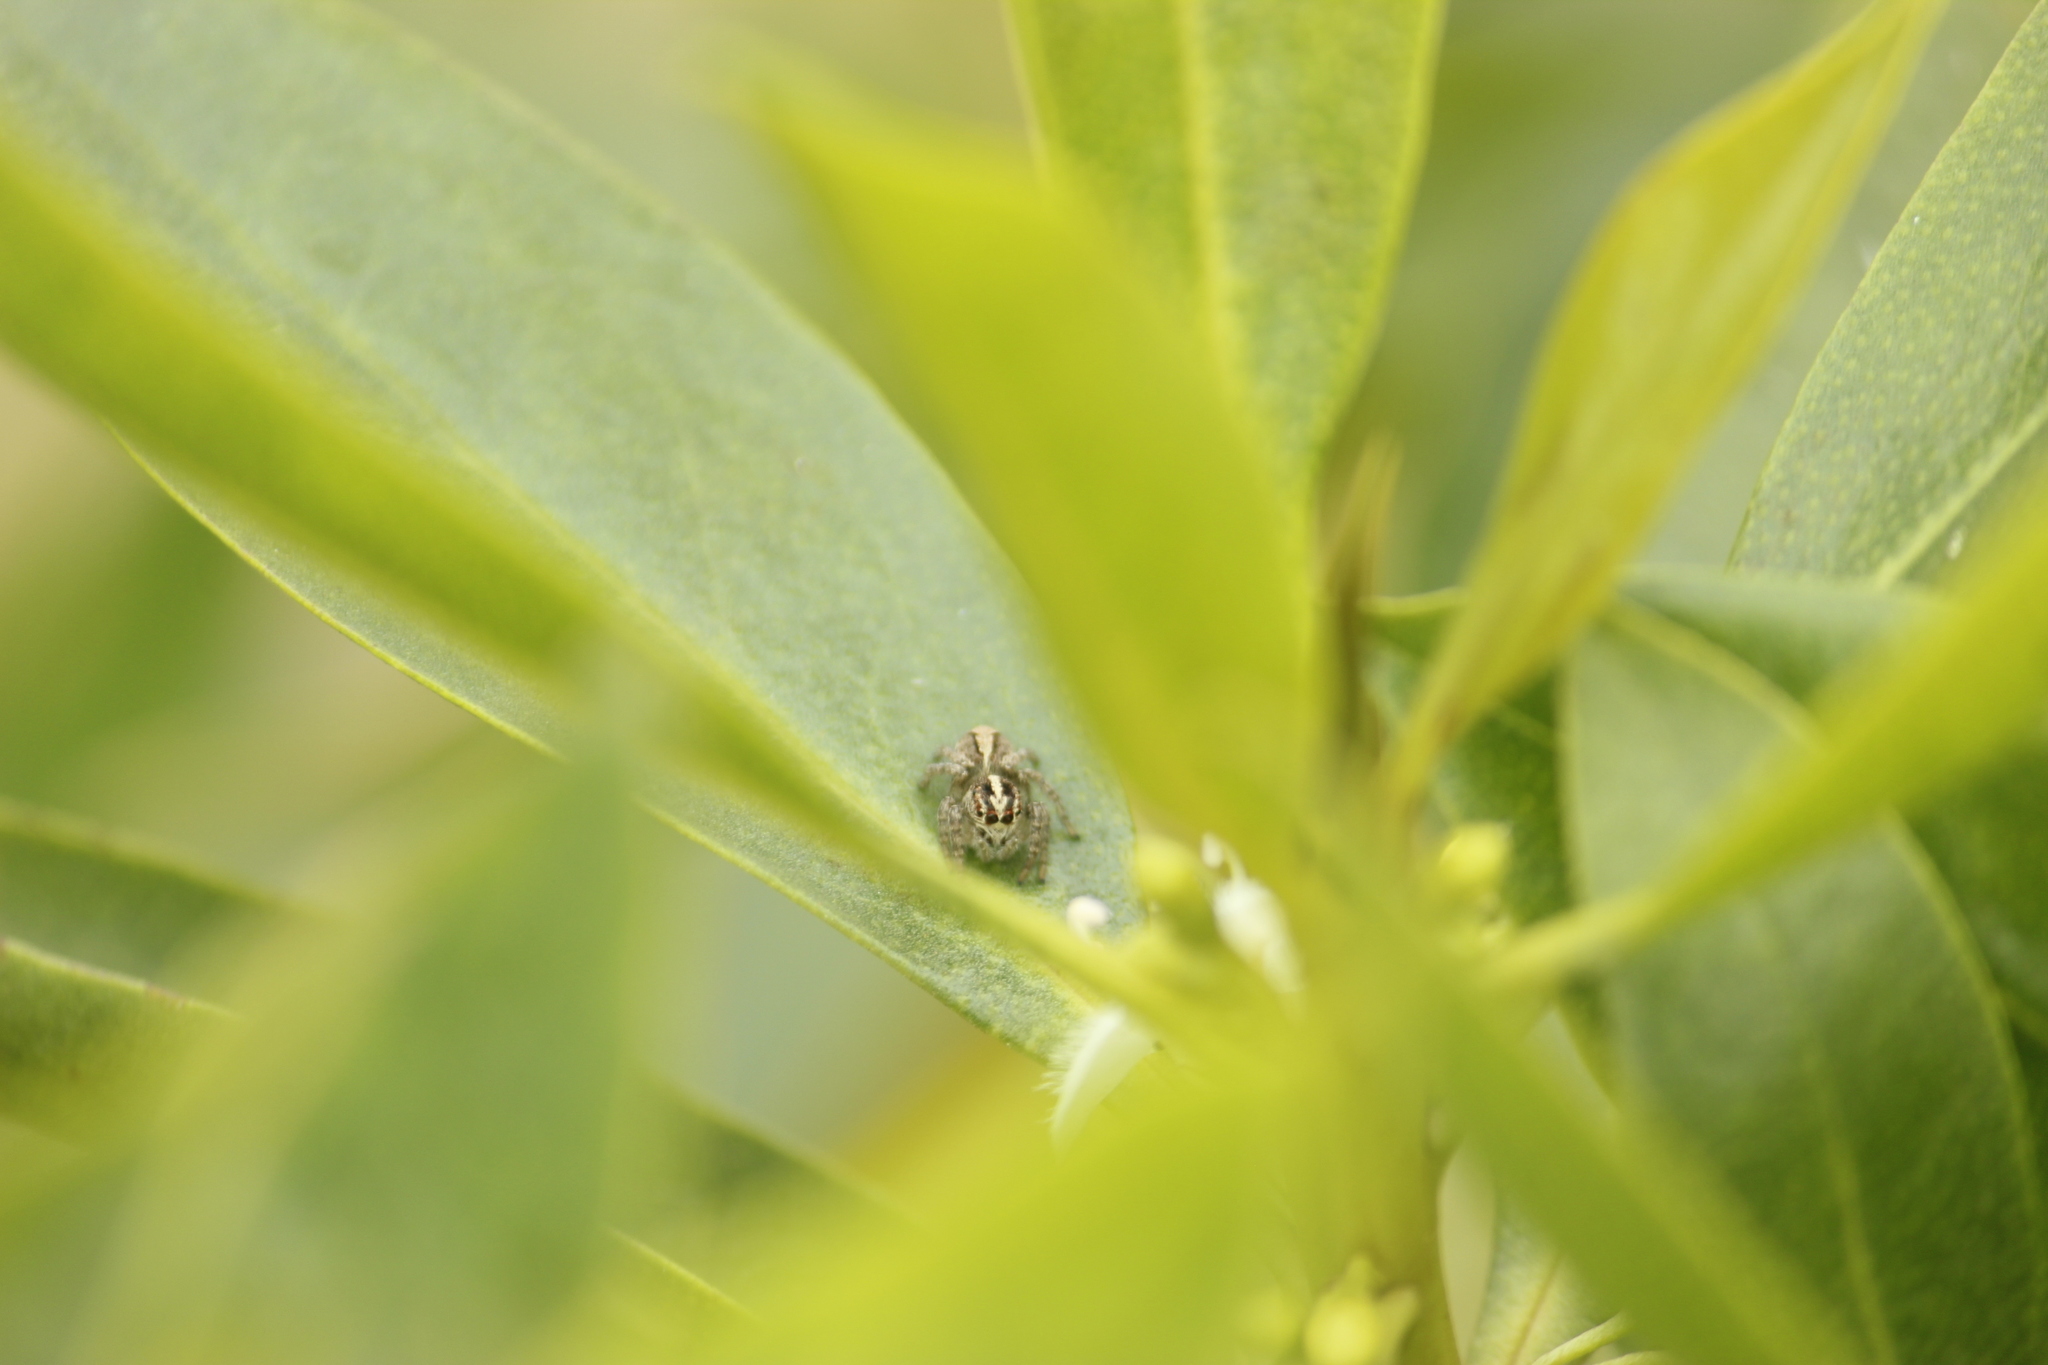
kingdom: Animalia
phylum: Arthropoda
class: Arachnida
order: Araneae
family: Salticidae
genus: Frigga
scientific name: Frigga crocuta
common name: Jumping spiders
